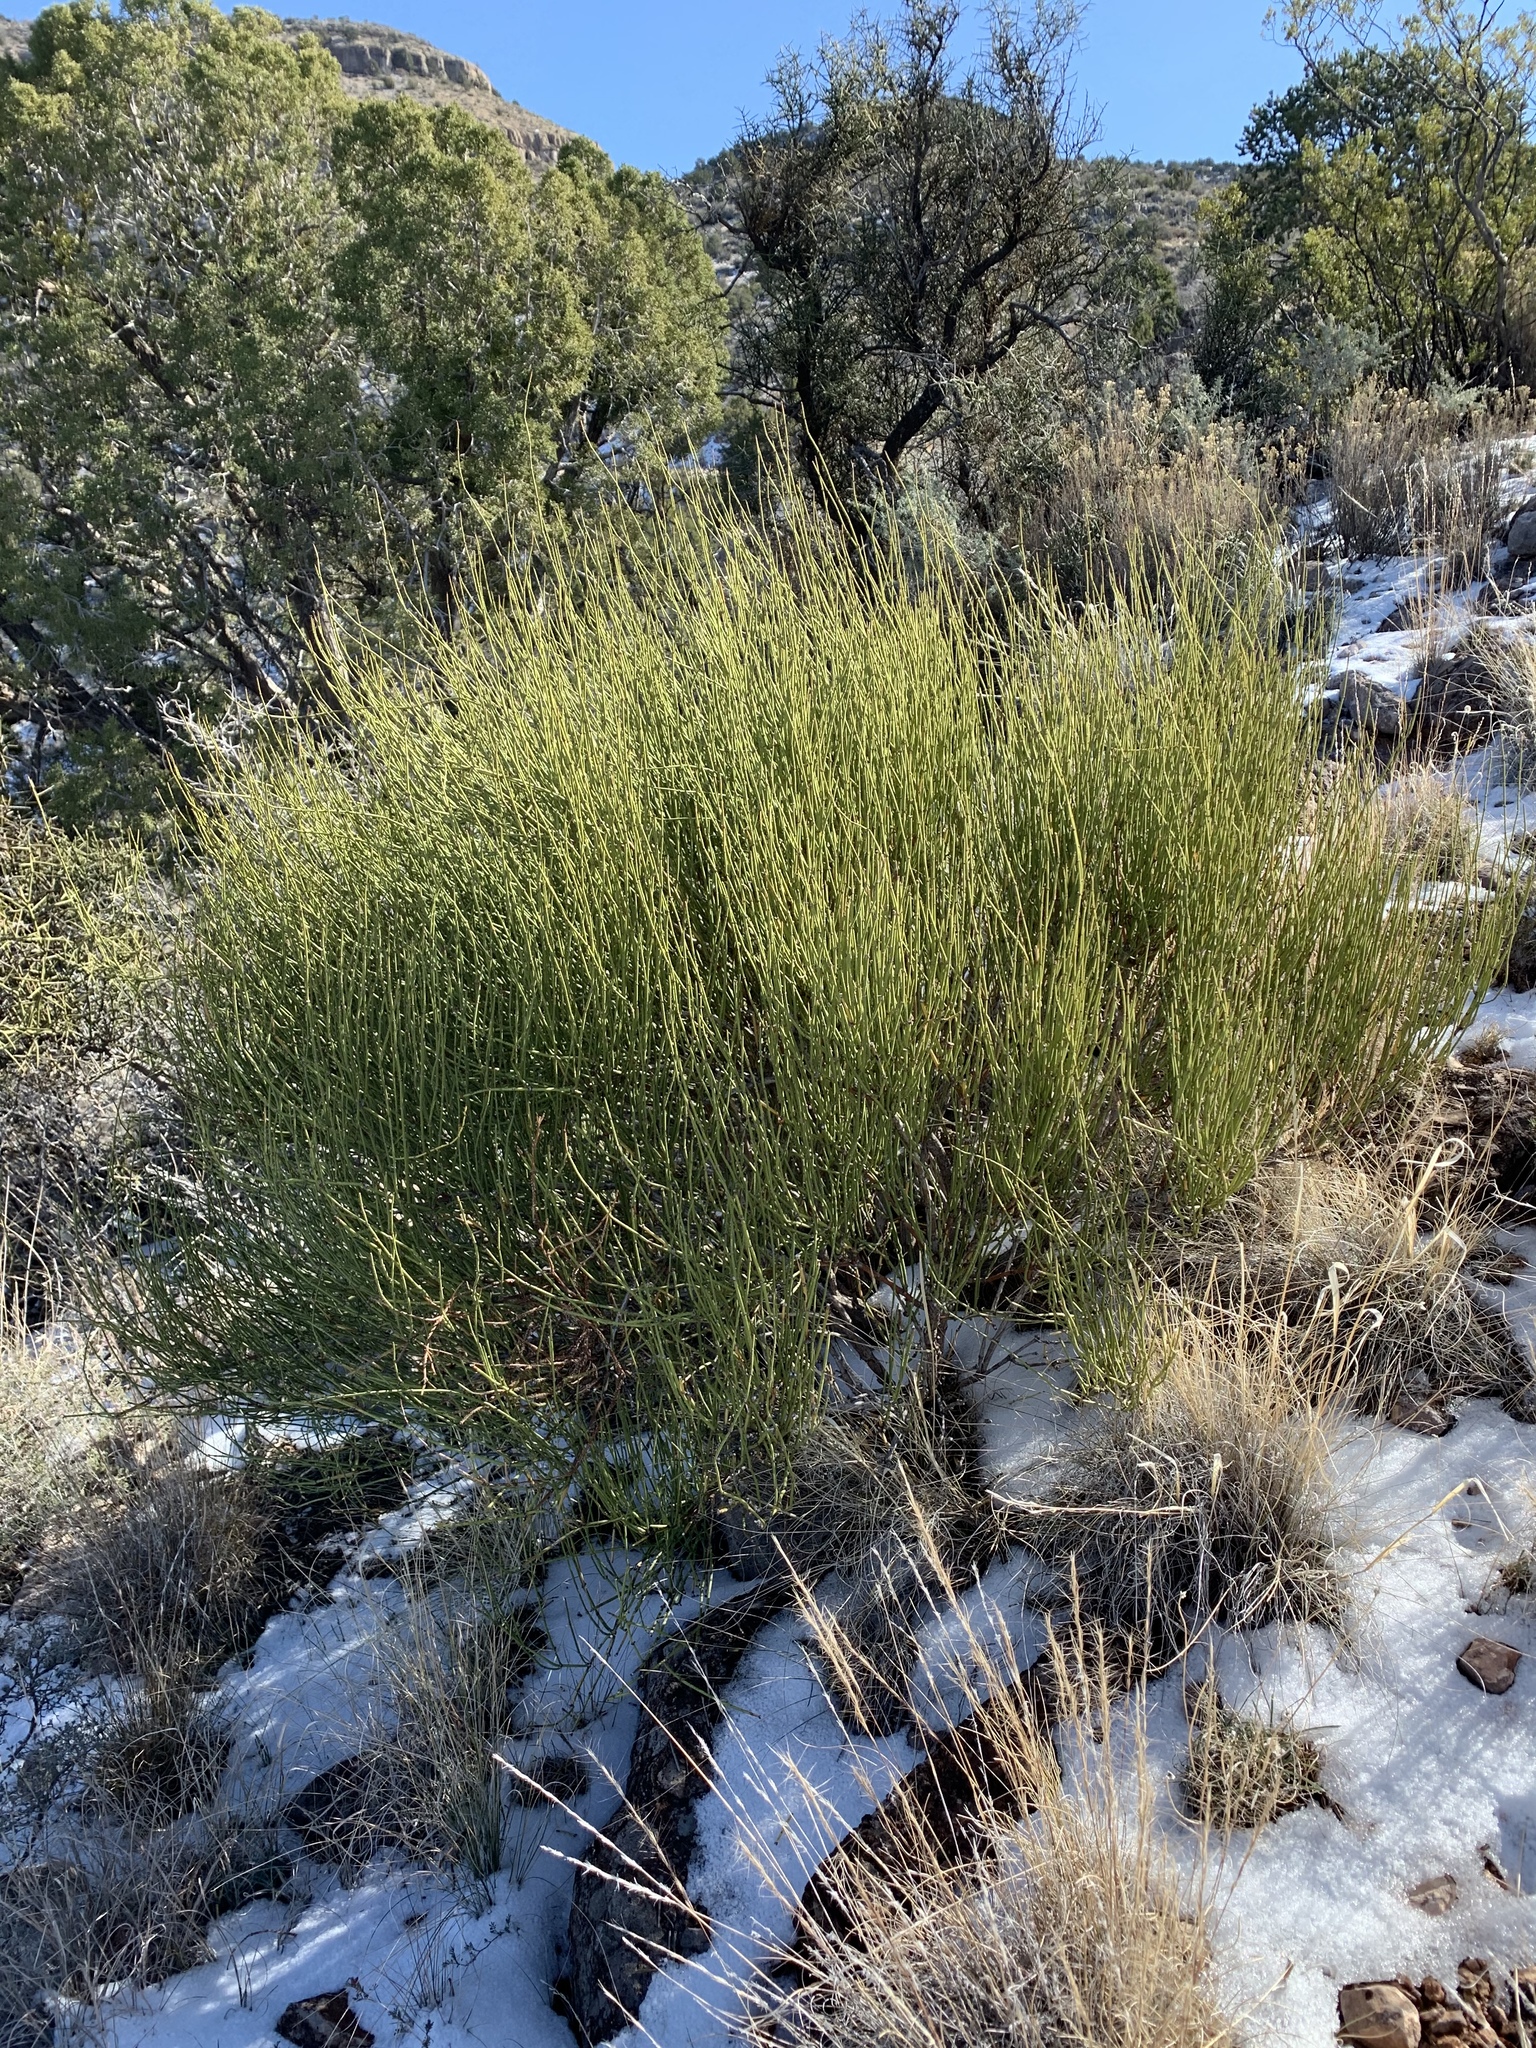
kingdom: Plantae
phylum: Tracheophyta
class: Gnetopsida
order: Ephedrales
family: Ephedraceae
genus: Ephedra
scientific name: Ephedra viridis
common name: Green ephedra
